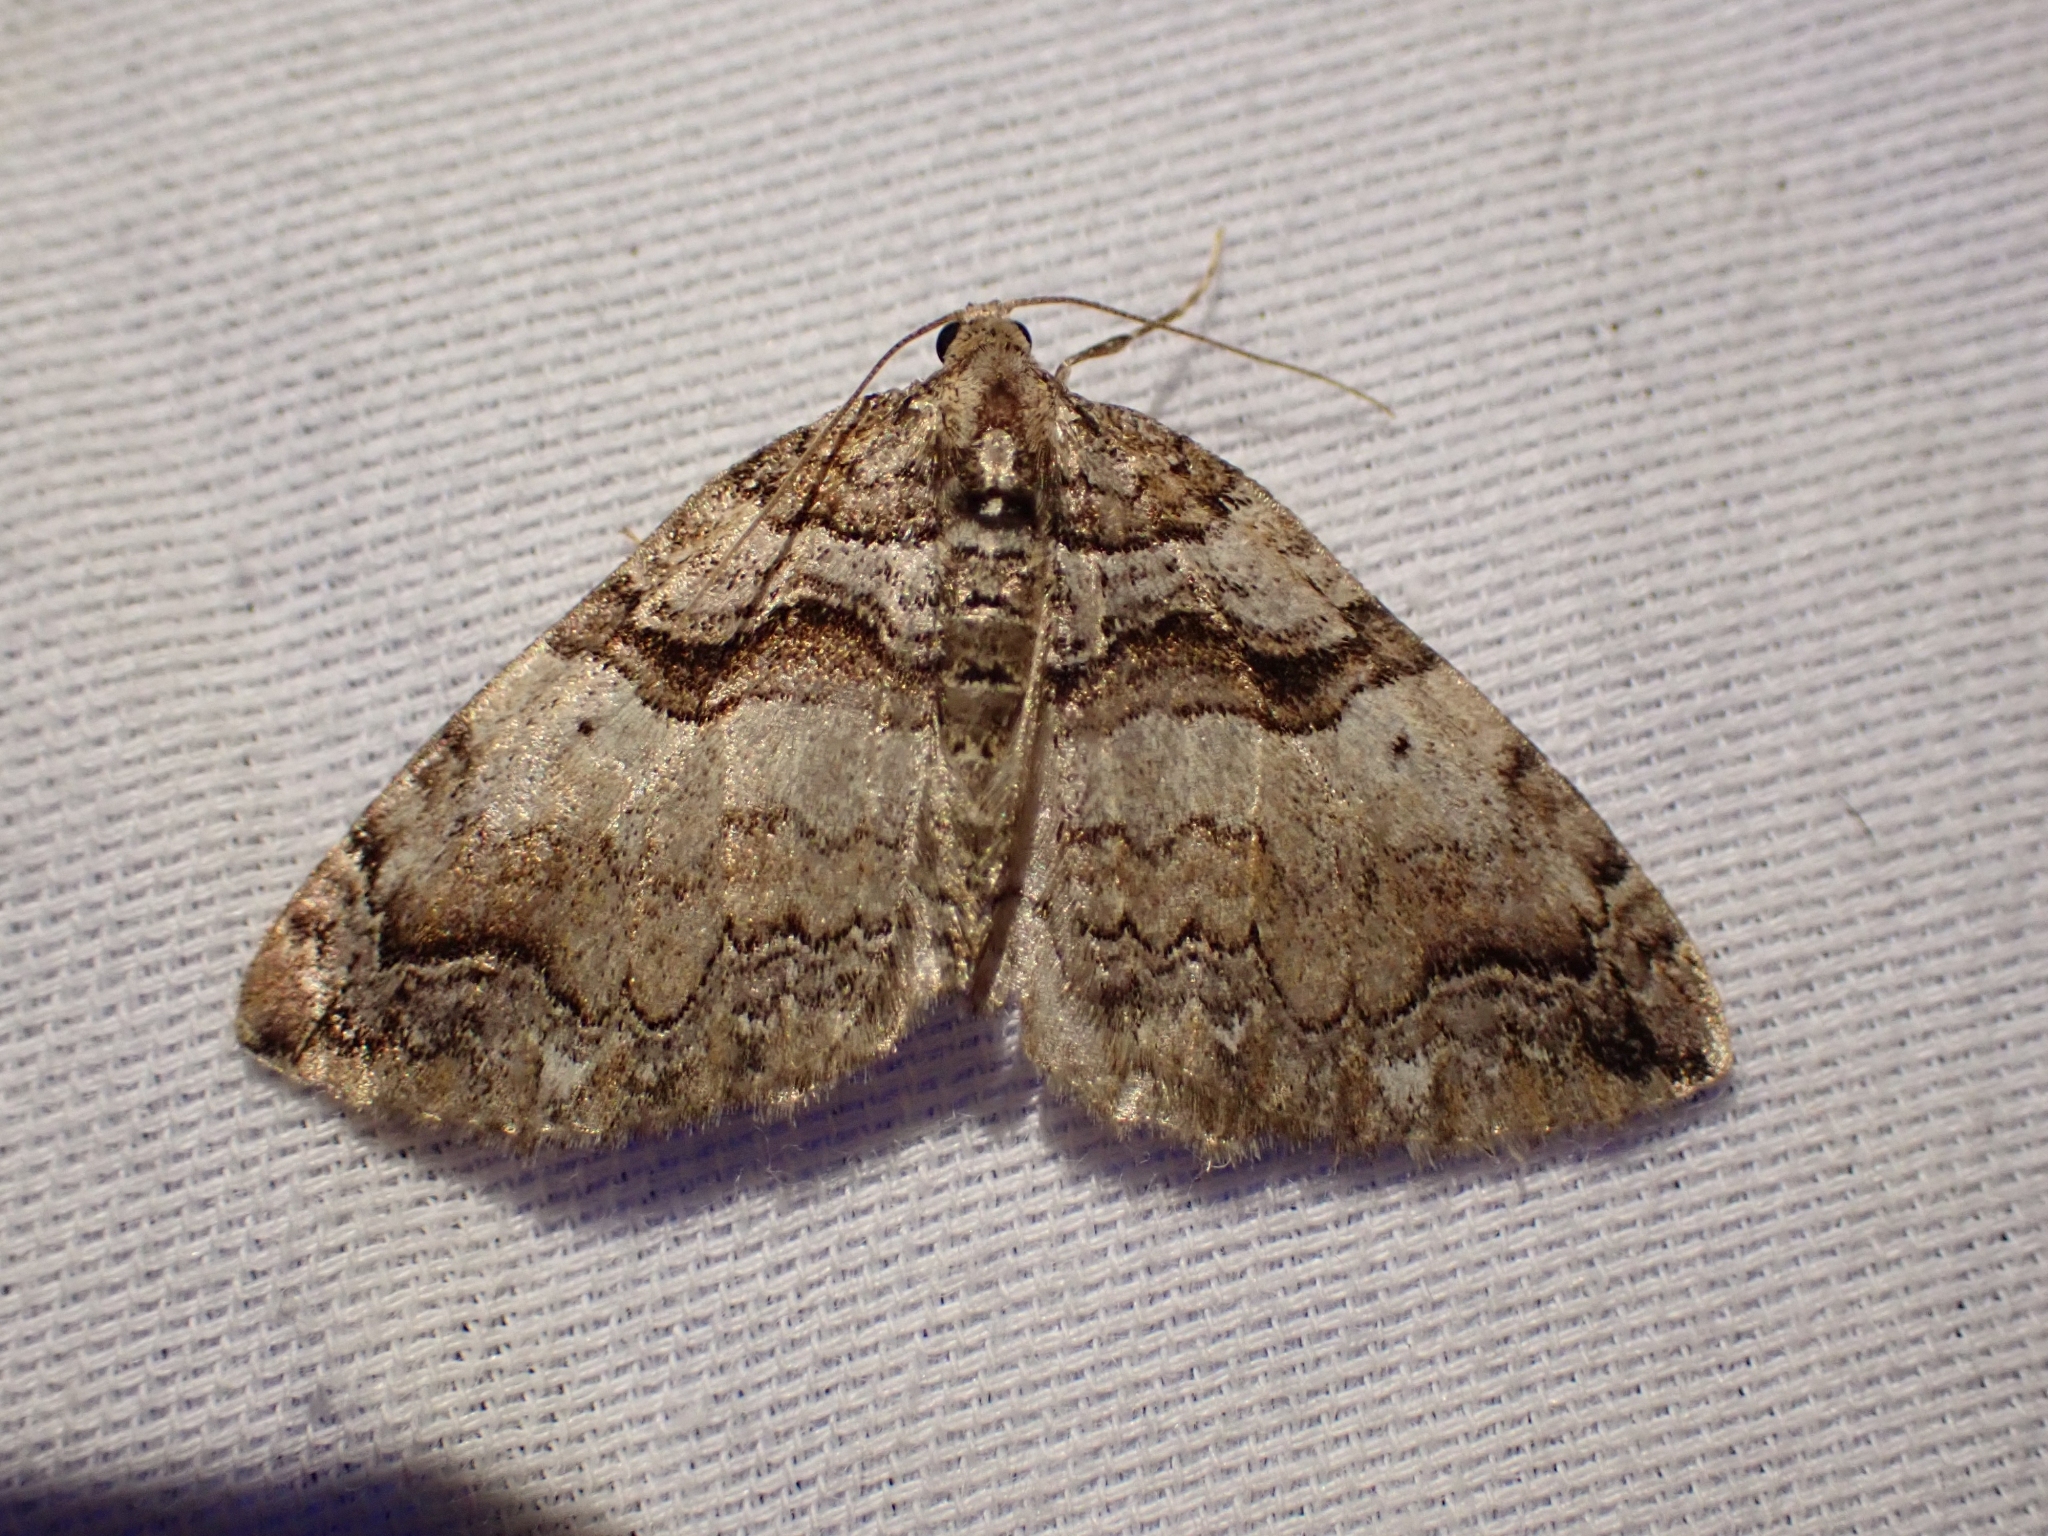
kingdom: Animalia
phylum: Arthropoda
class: Insecta
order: Lepidoptera
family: Geometridae
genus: Anticlea
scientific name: Anticlea vasiliata
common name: Variable carpet
